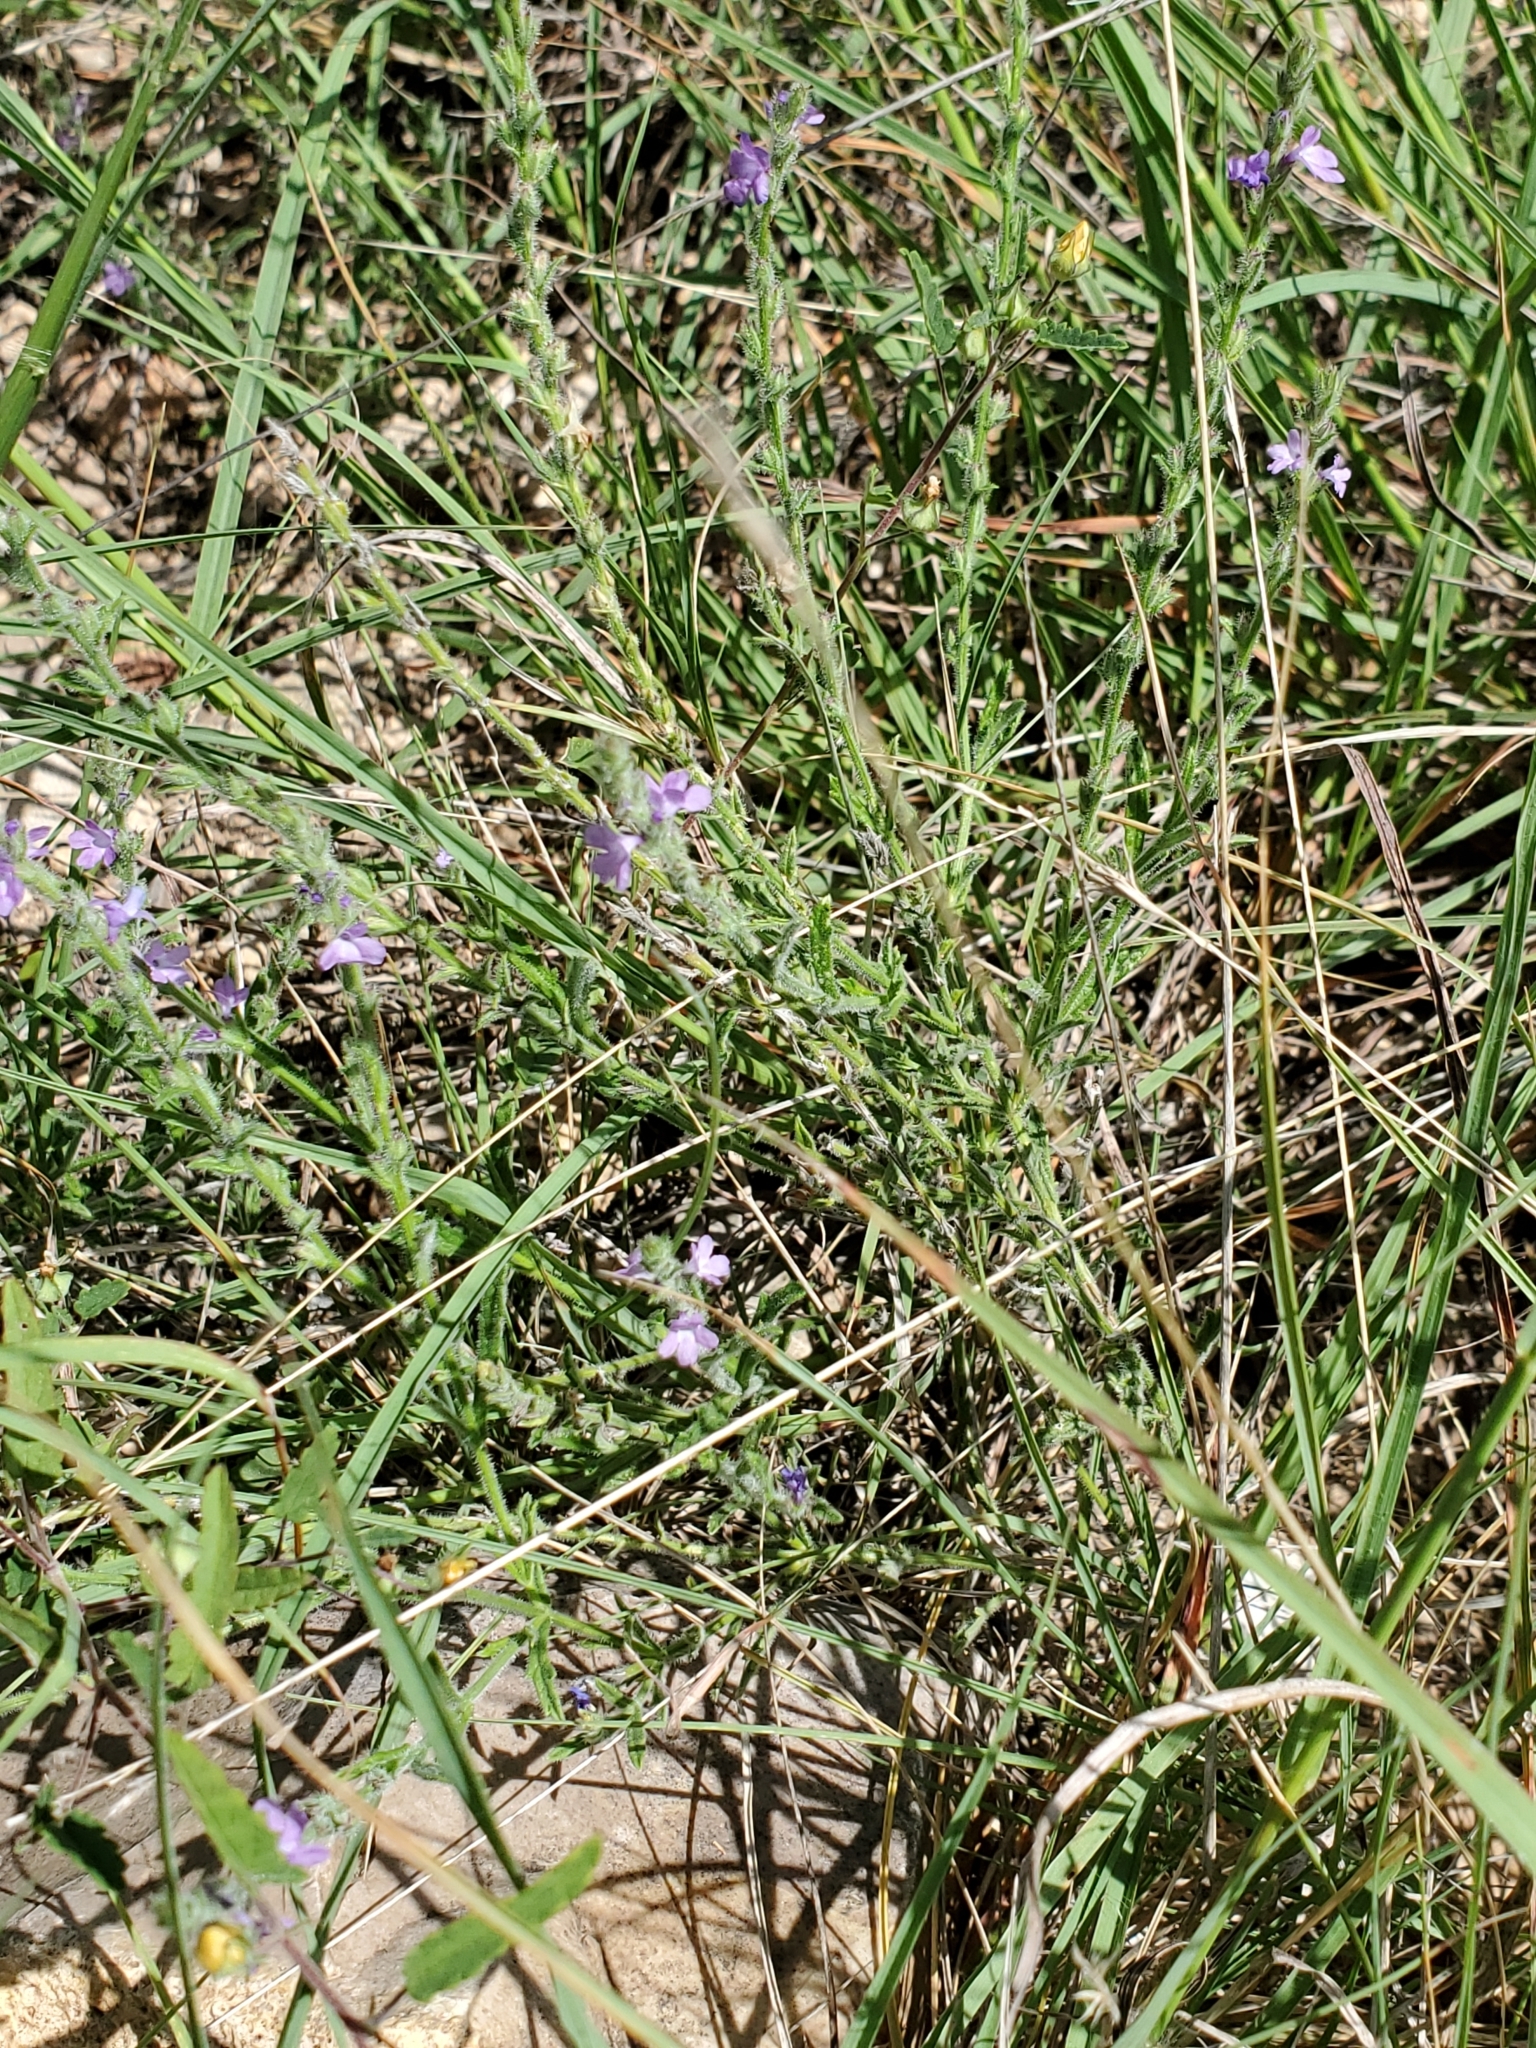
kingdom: Plantae
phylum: Tracheophyta
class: Magnoliopsida
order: Lamiales
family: Verbenaceae
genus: Verbena
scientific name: Verbena canescens
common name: Gray vervain
